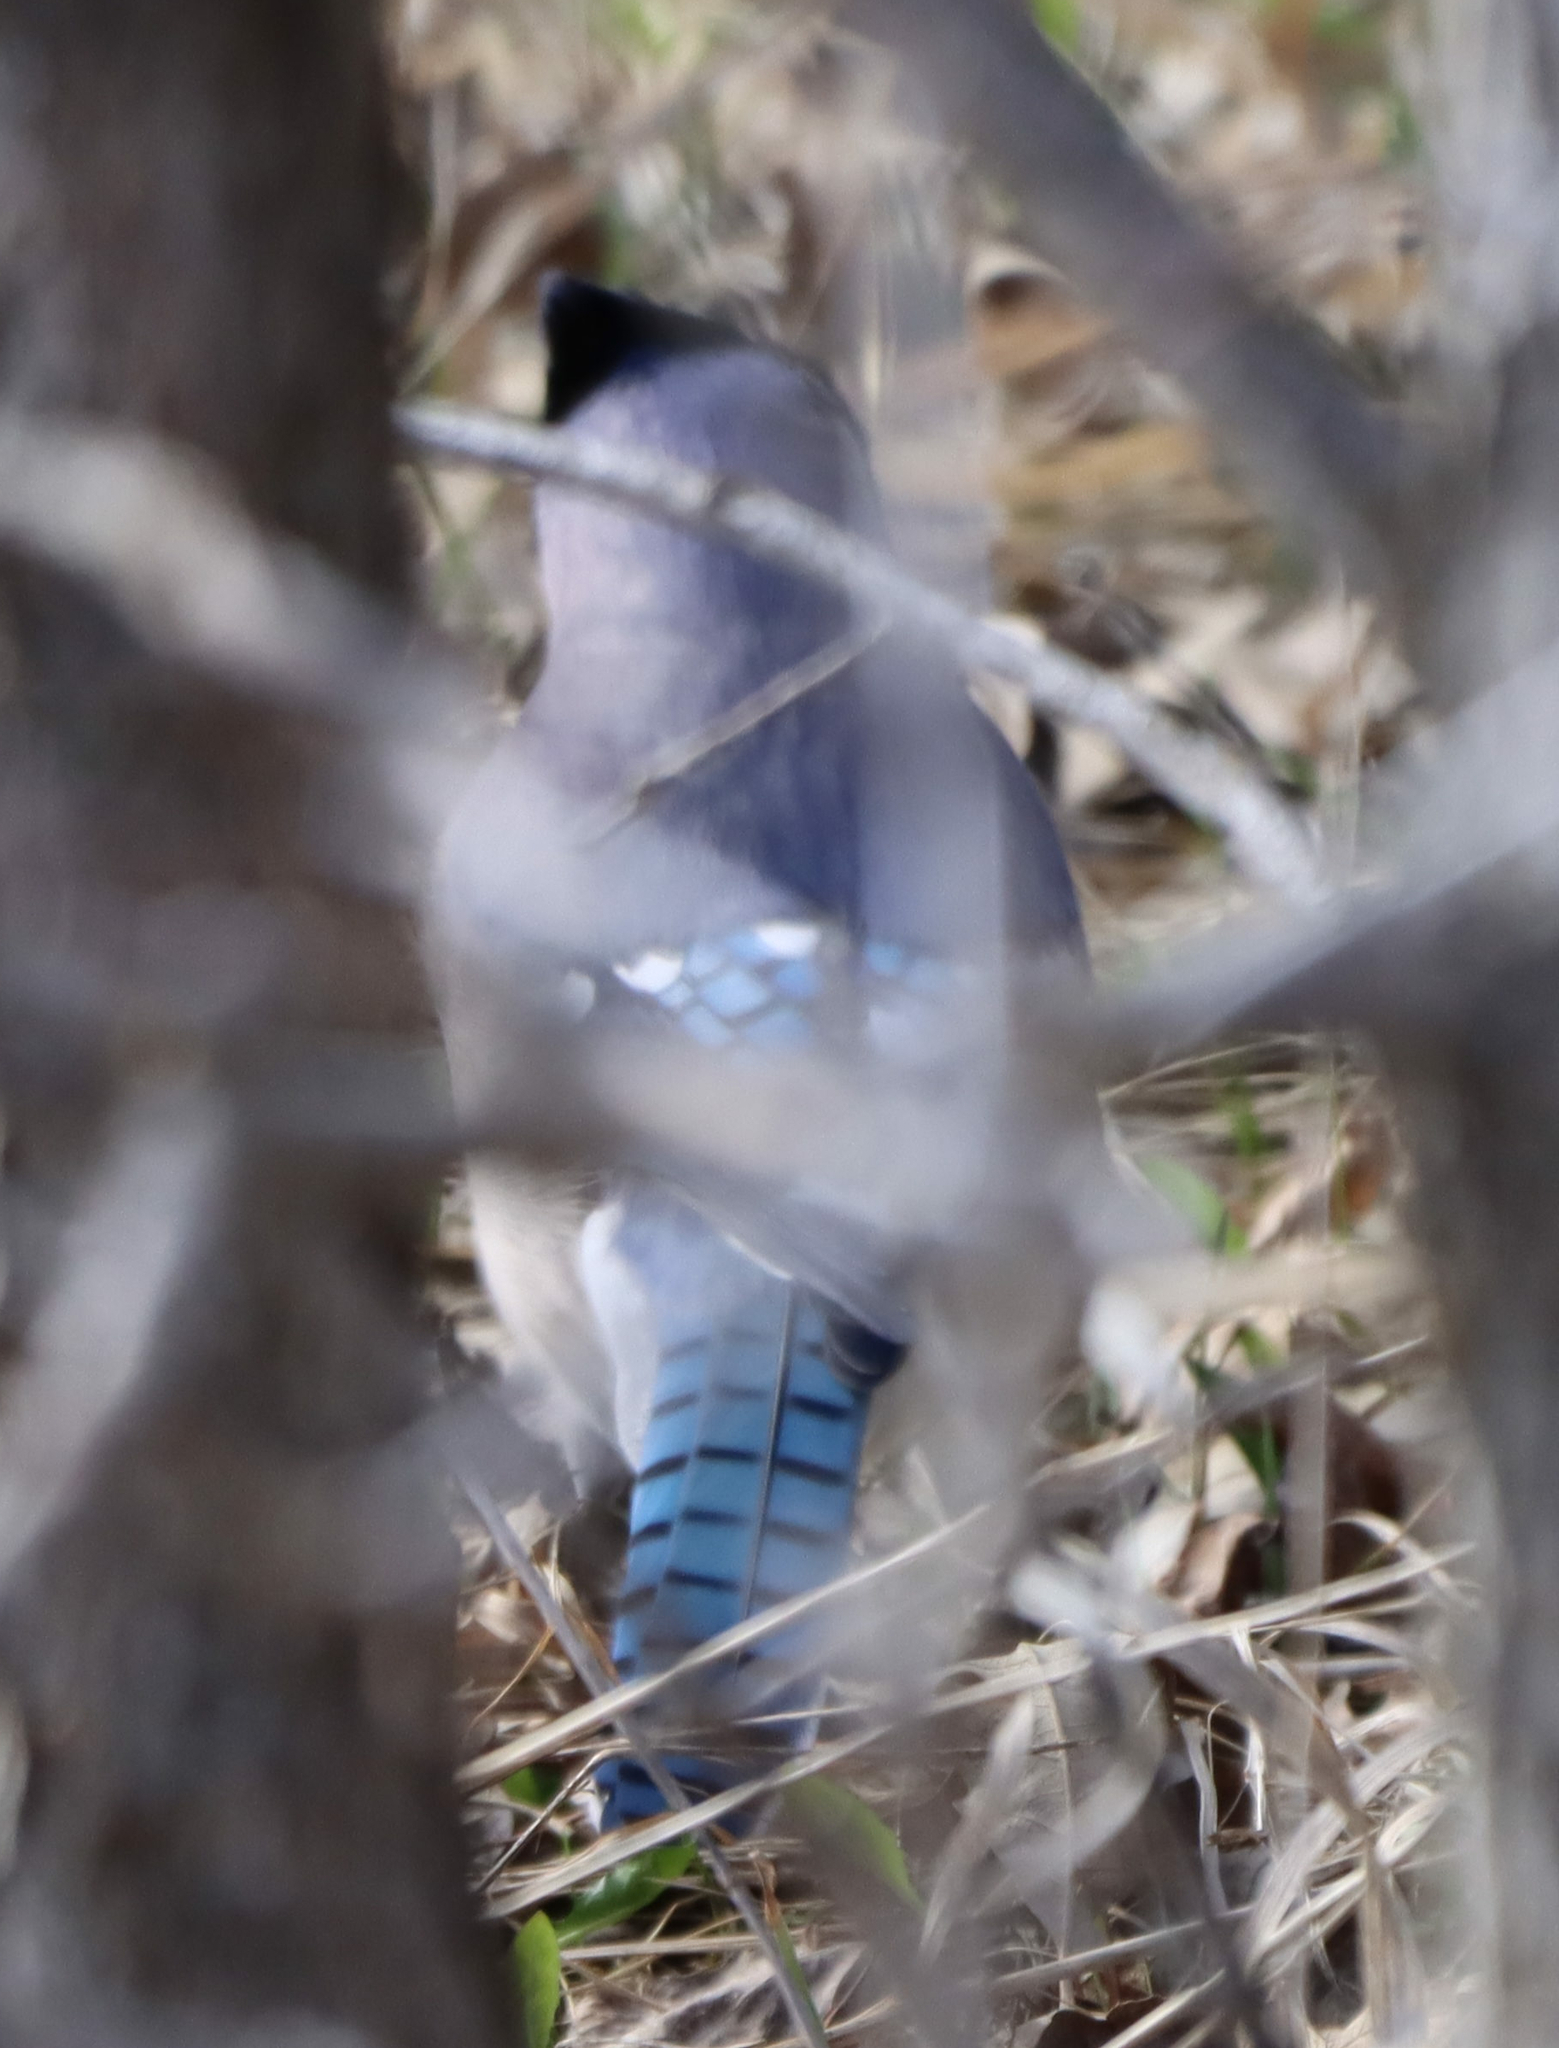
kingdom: Animalia
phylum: Chordata
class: Aves
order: Passeriformes
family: Corvidae
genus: Cyanocitta
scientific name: Cyanocitta cristata
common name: Blue jay
